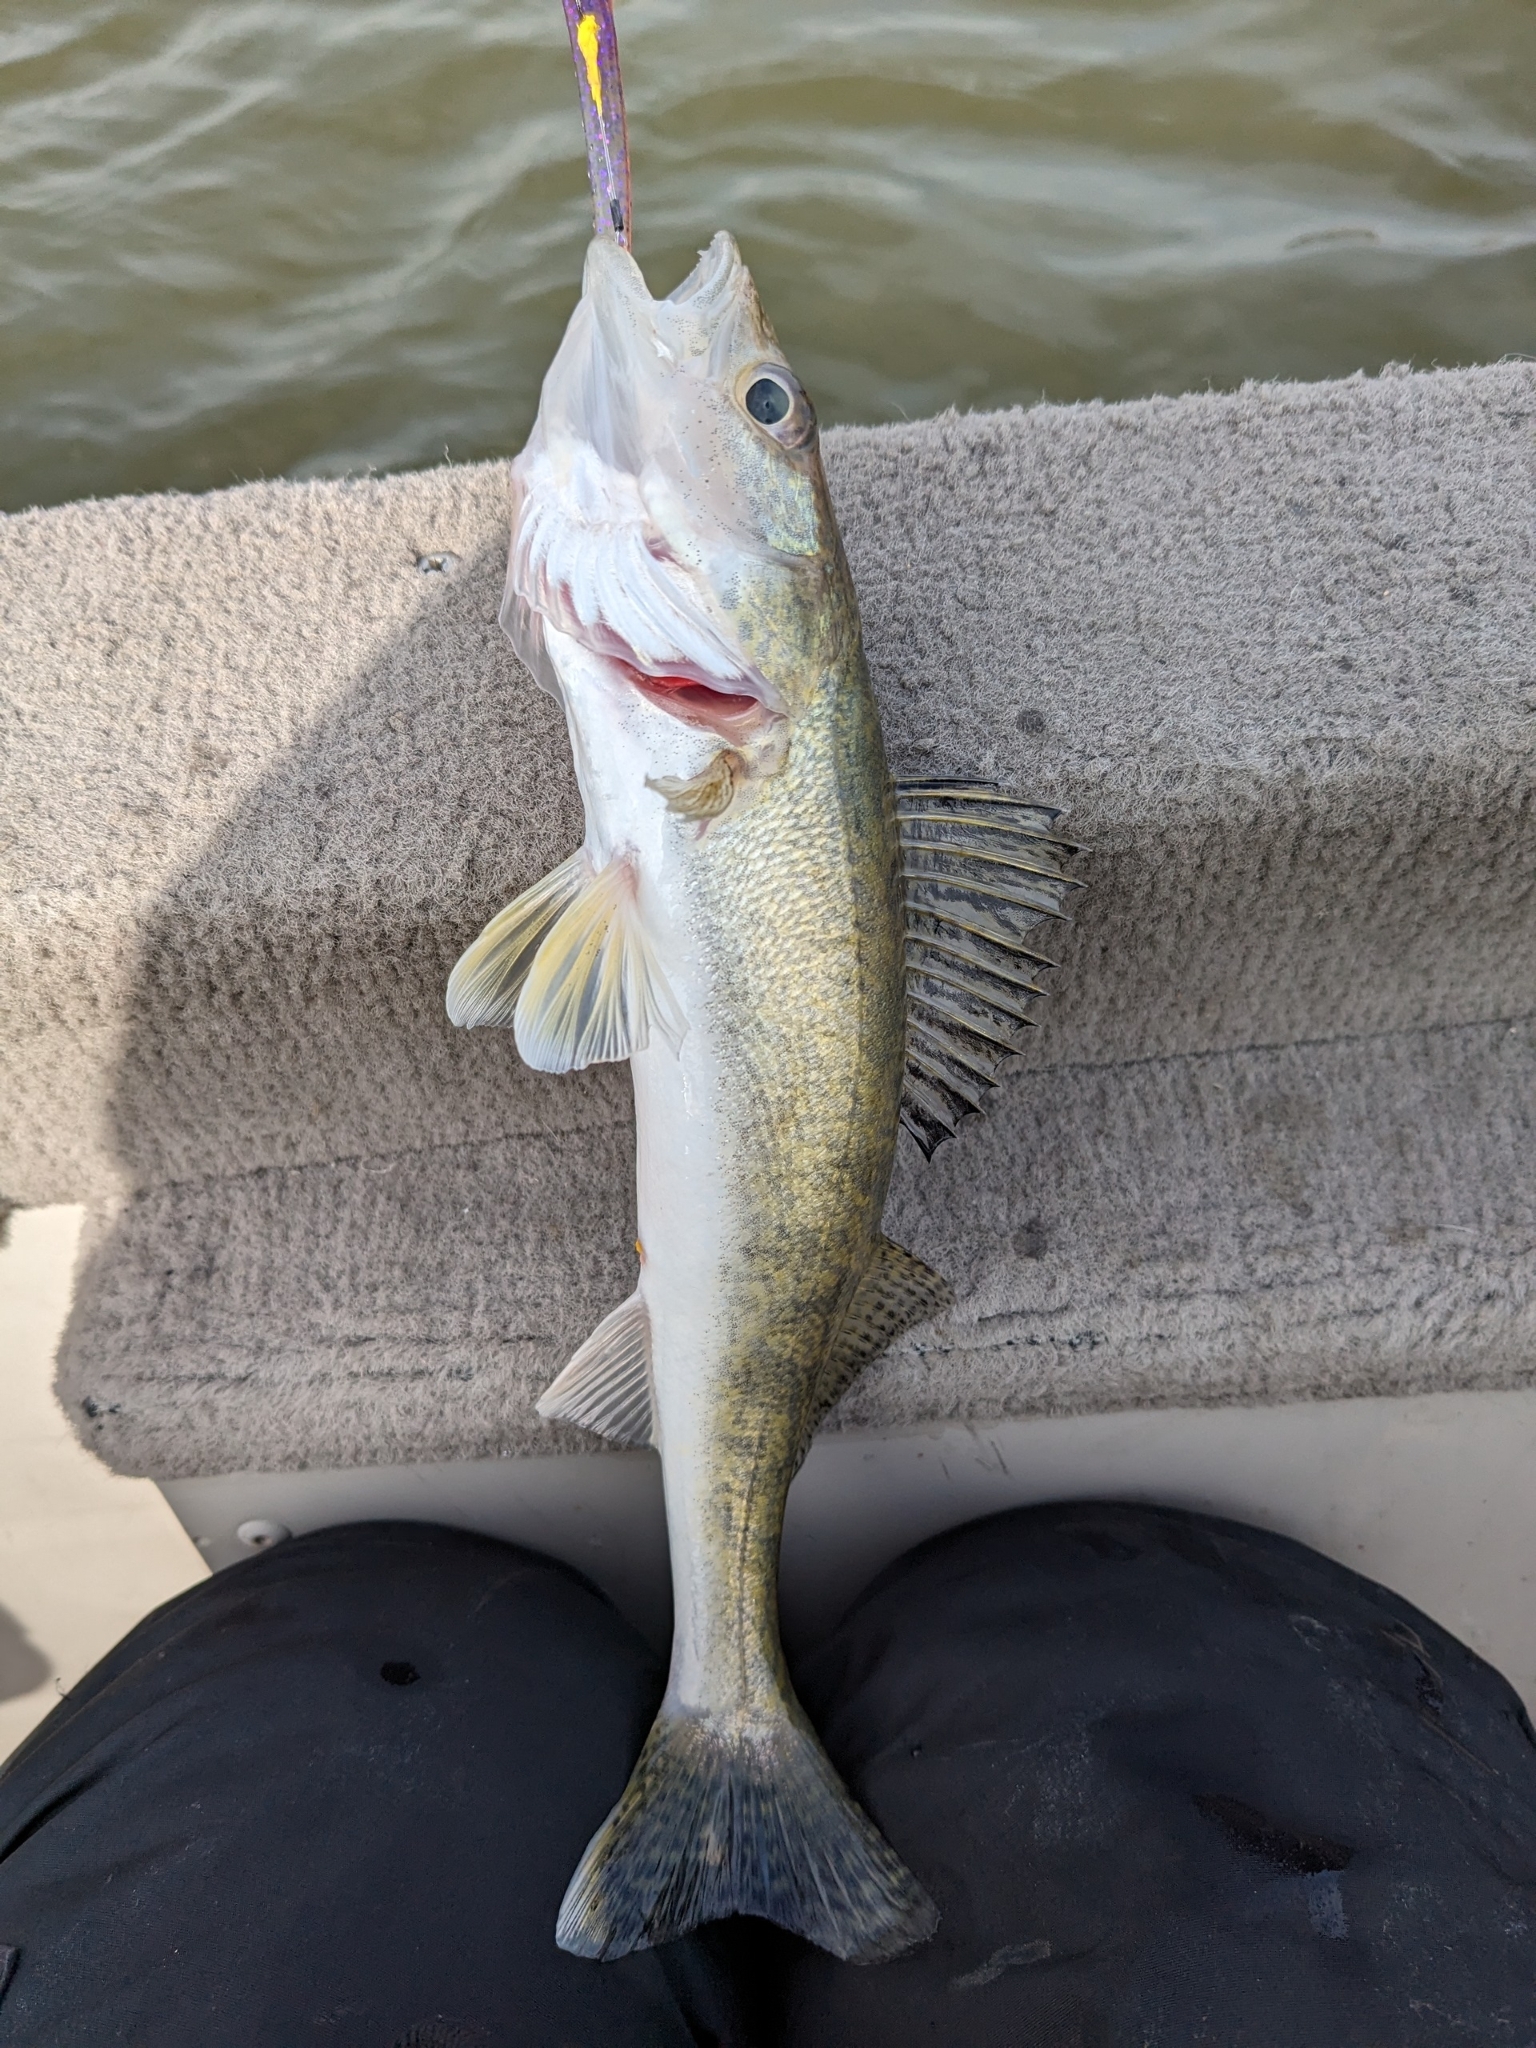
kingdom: Animalia
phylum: Chordata
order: Perciformes
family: Percidae
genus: Sander
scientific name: Sander vitreus
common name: Walleye
